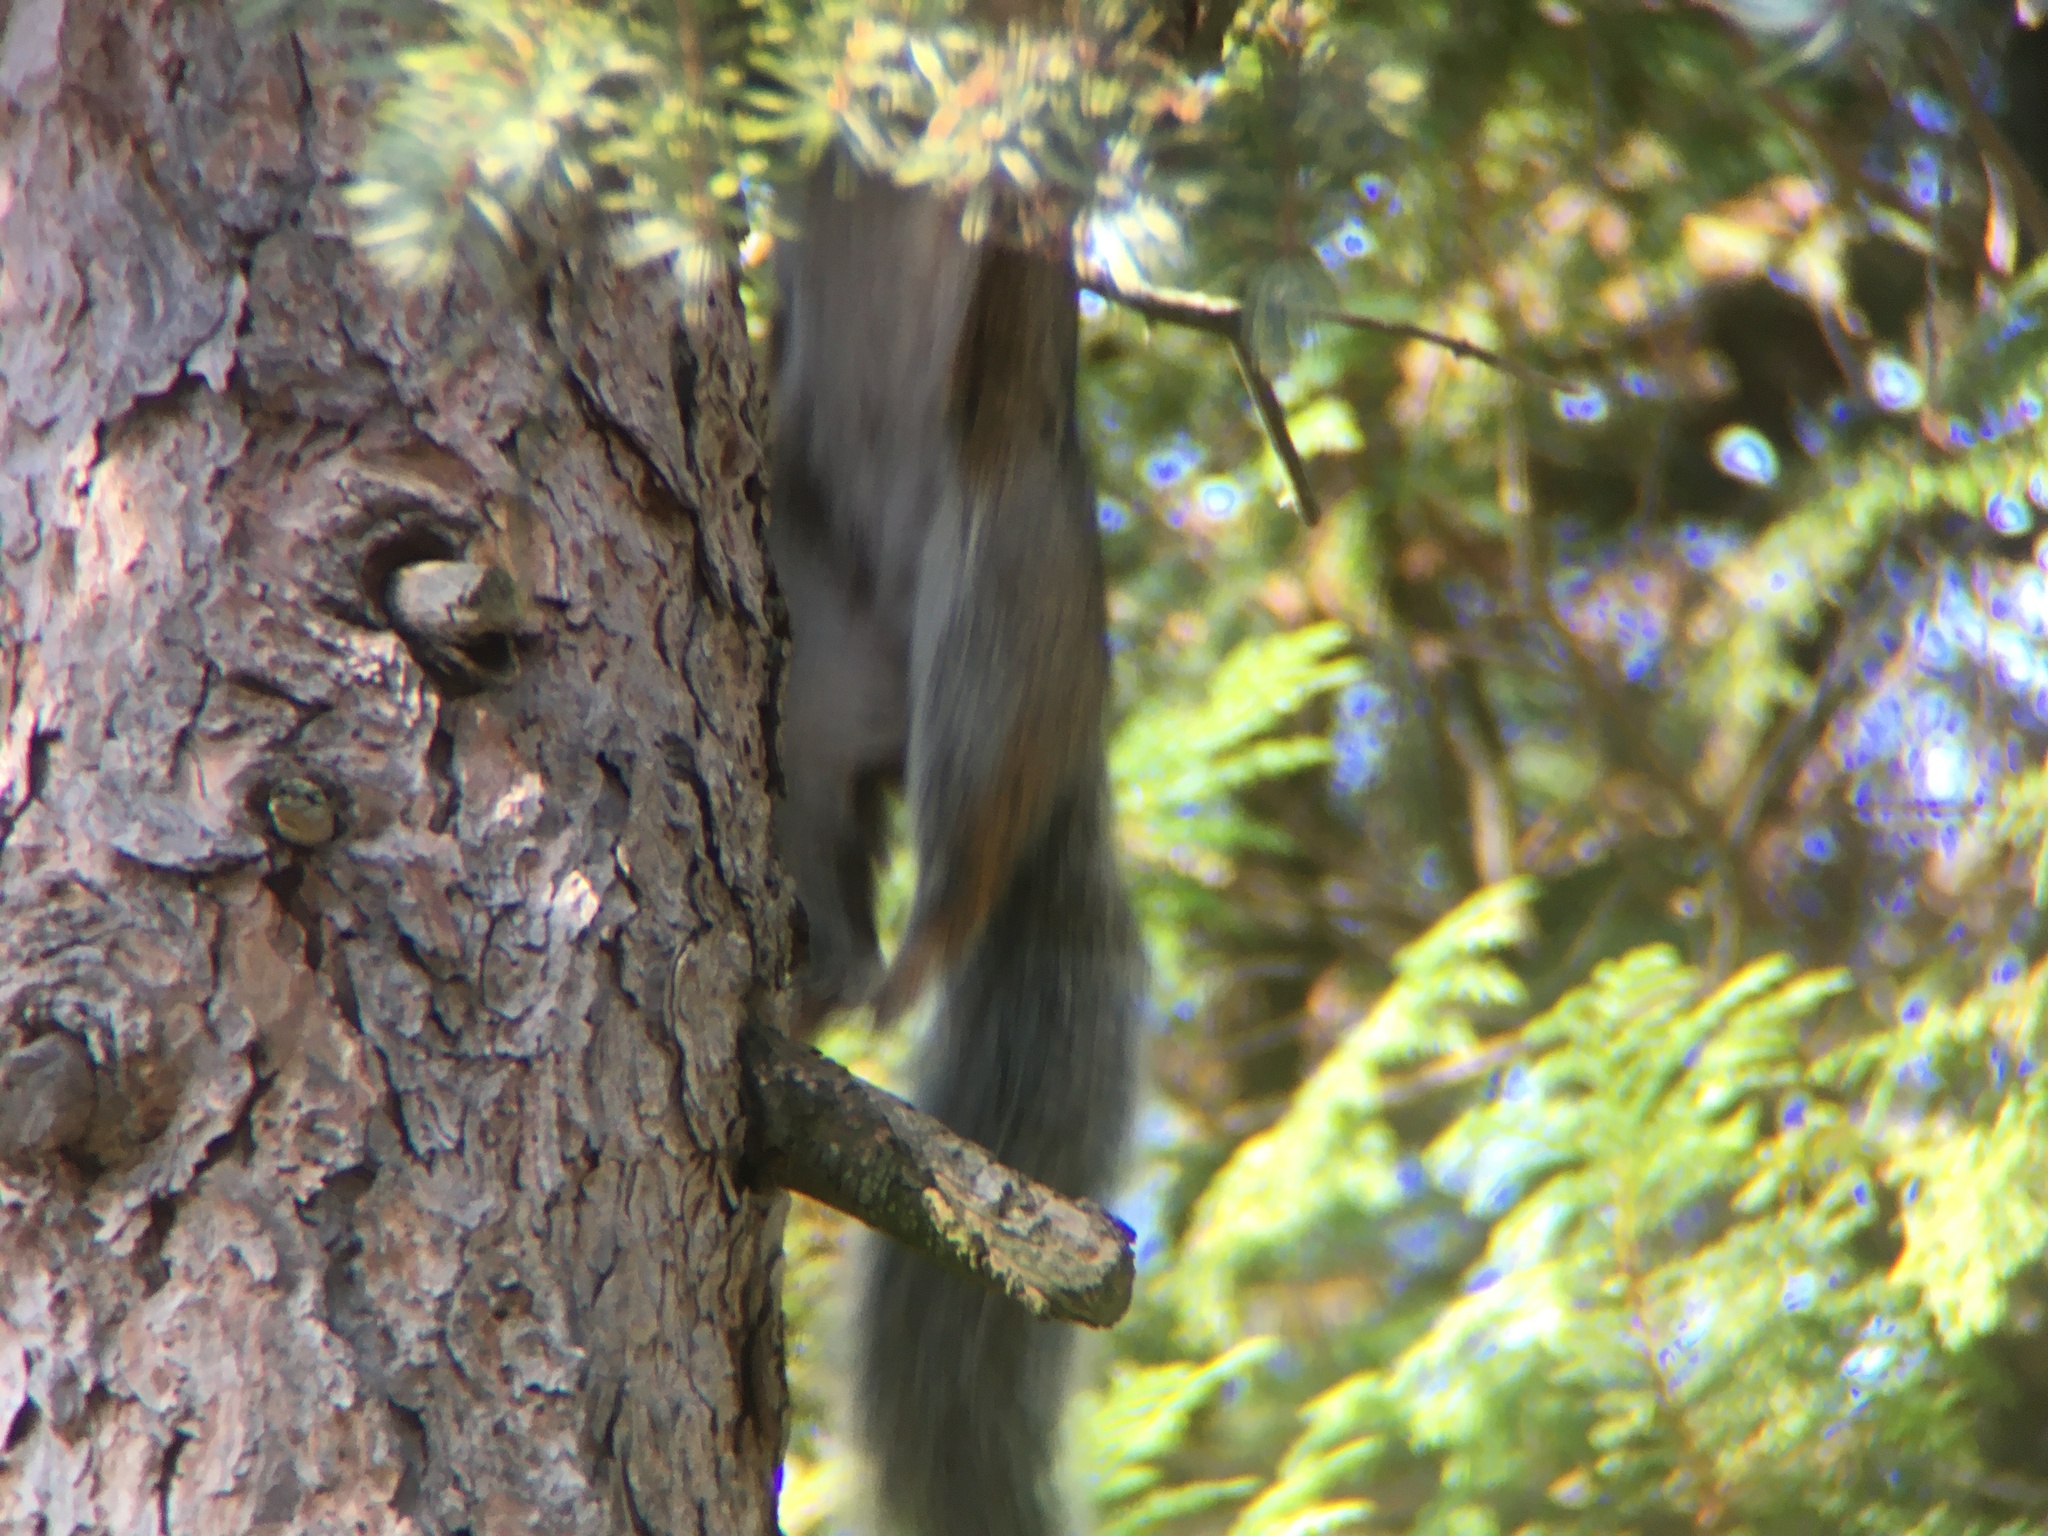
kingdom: Animalia
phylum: Chordata
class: Mammalia
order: Rodentia
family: Sciuridae
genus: Sciurus
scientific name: Sciurus carolinensis
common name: Eastern gray squirrel
